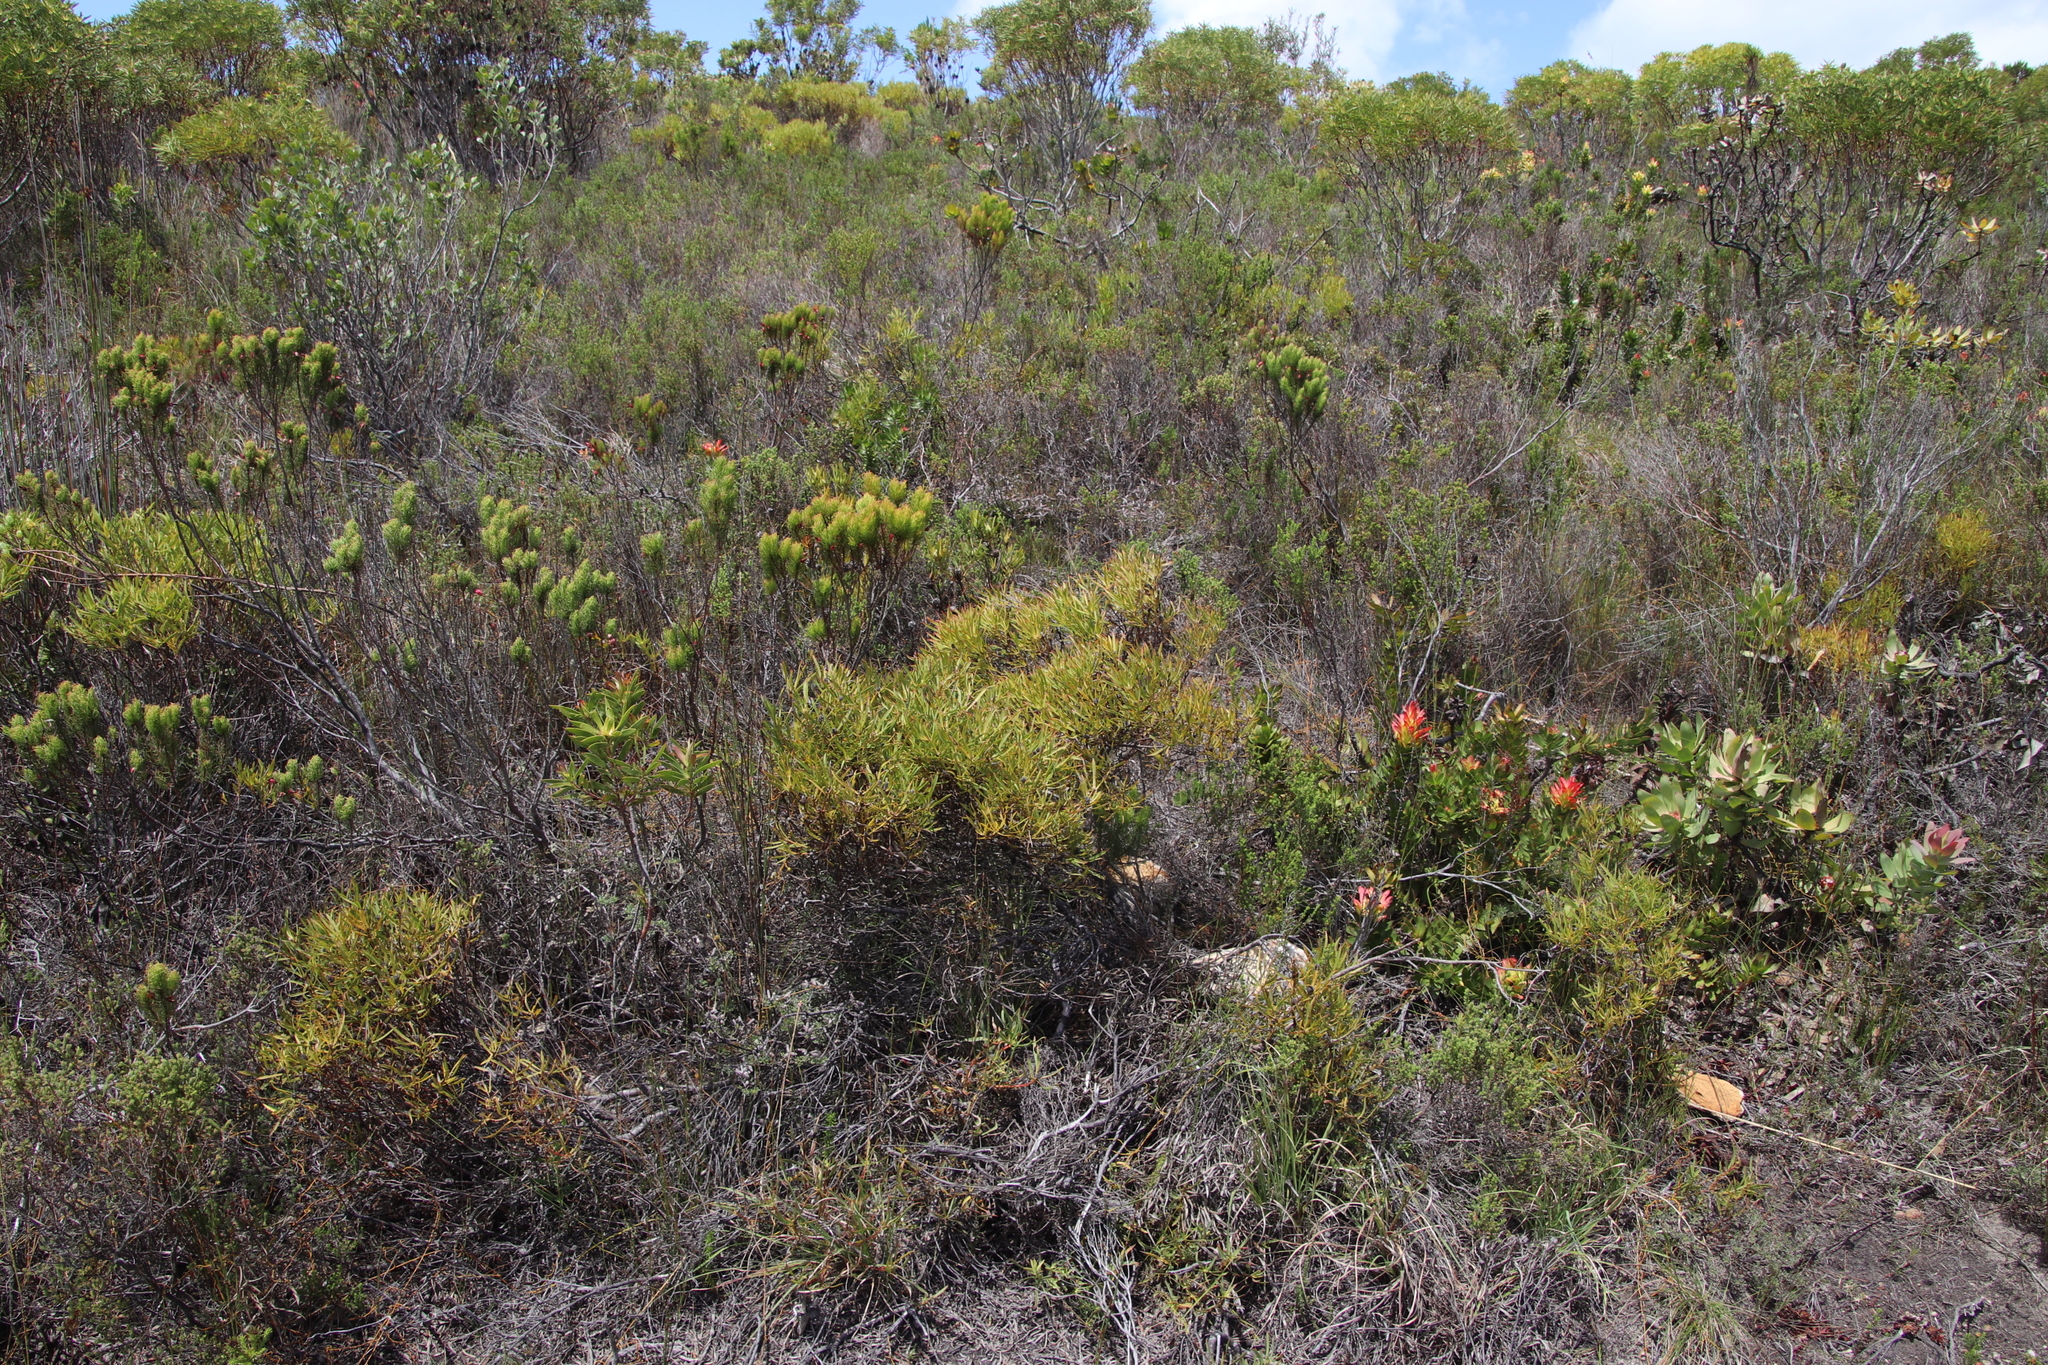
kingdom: Plantae
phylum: Tracheophyta
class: Magnoliopsida
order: Proteales
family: Proteaceae
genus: Leucadendron
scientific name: Leucadendron salignum
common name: Common sunshine conebush
